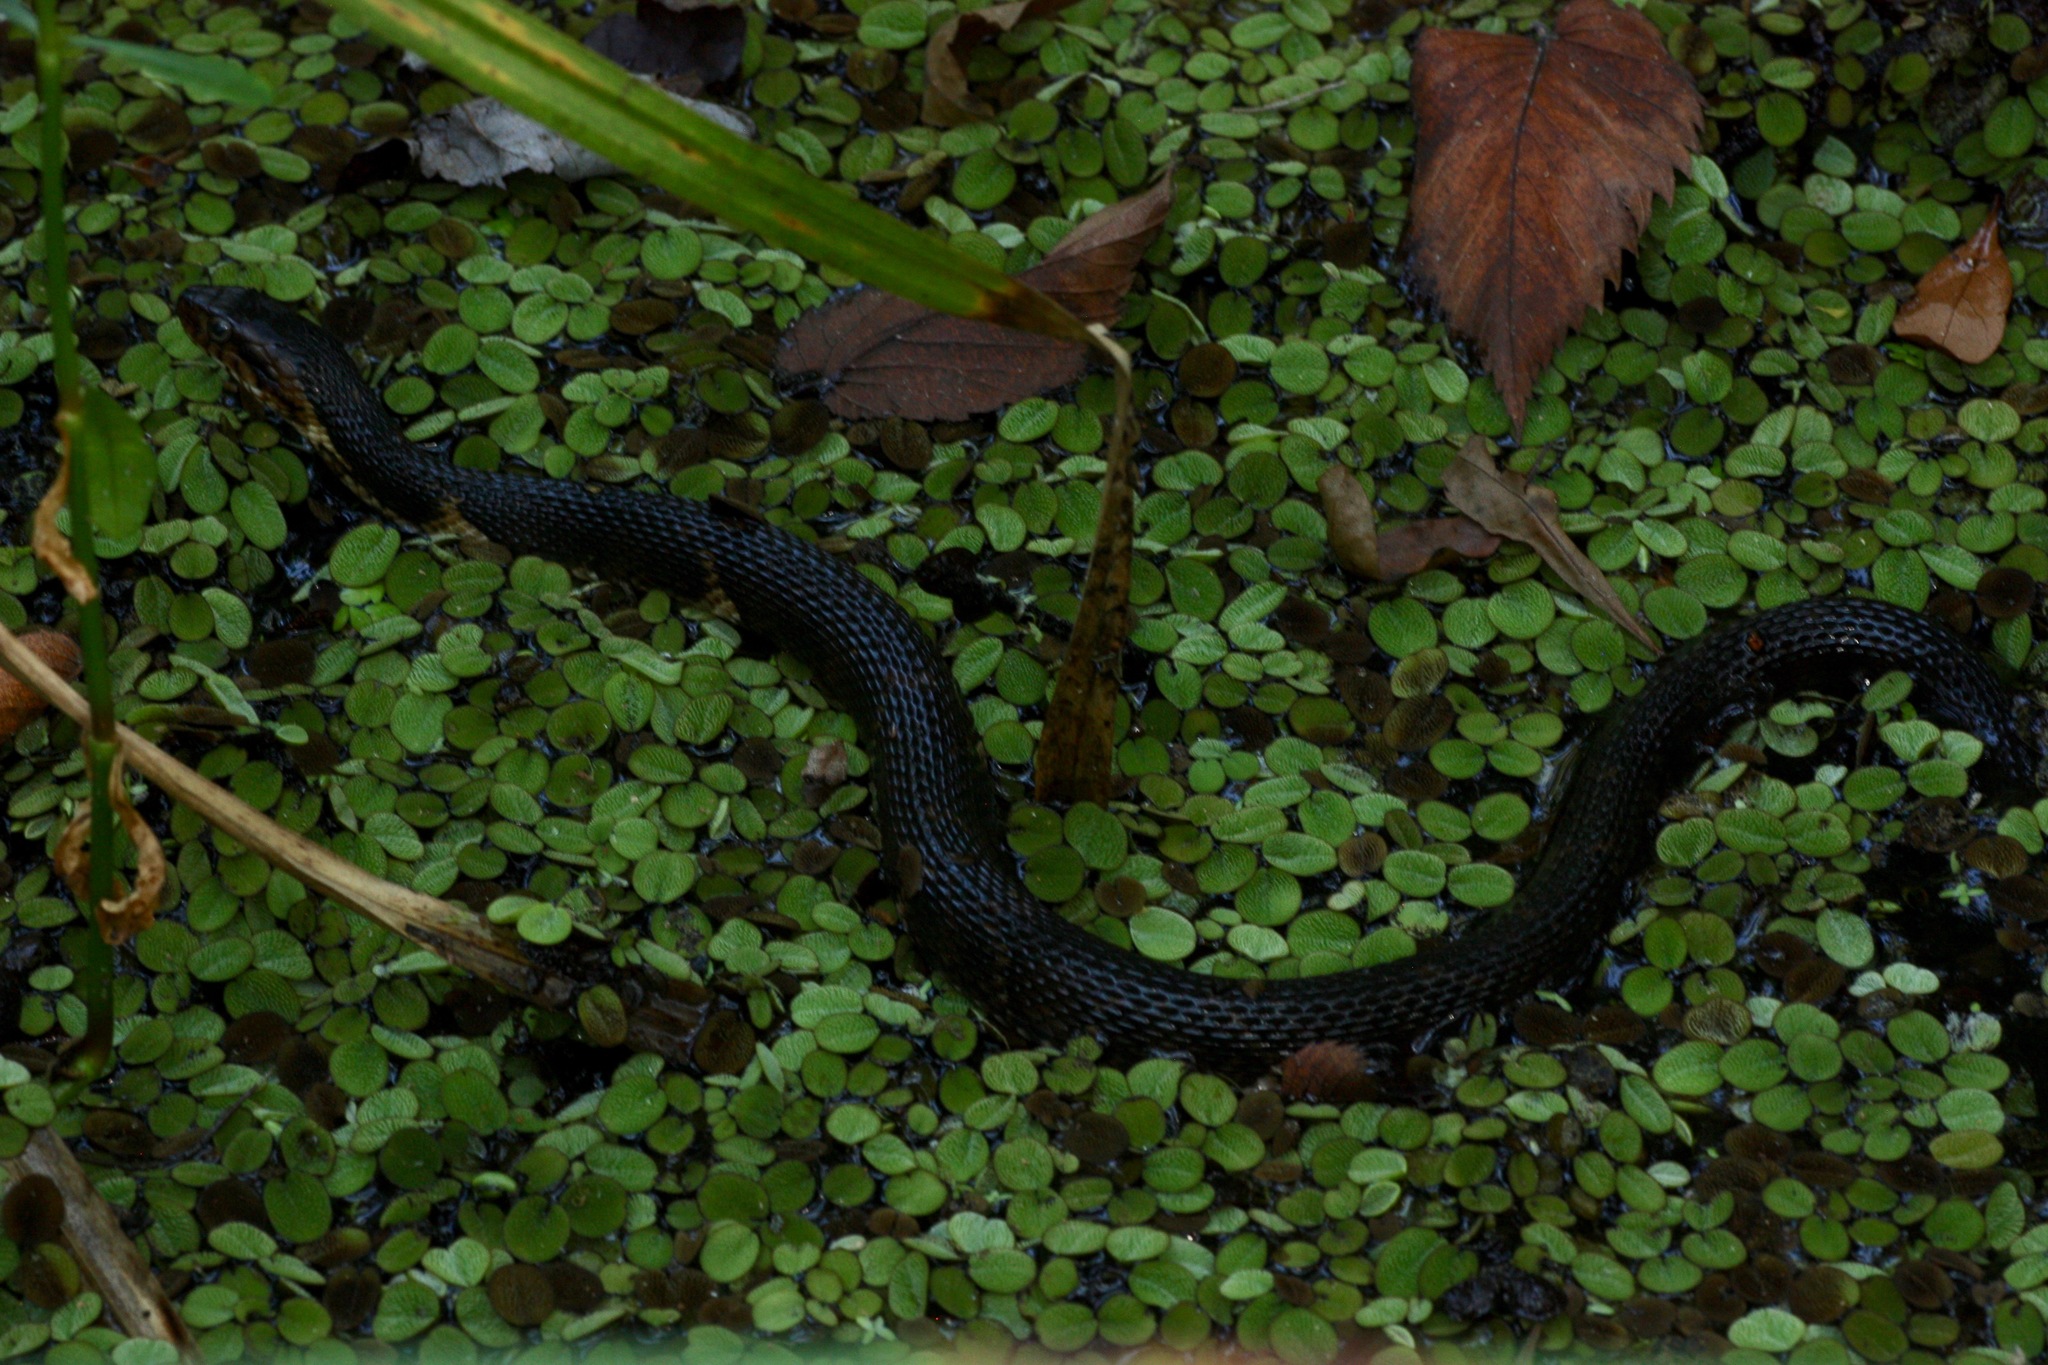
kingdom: Animalia
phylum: Chordata
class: Squamata
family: Colubridae
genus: Nerodia
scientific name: Nerodia fasciata
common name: Southern water snake
